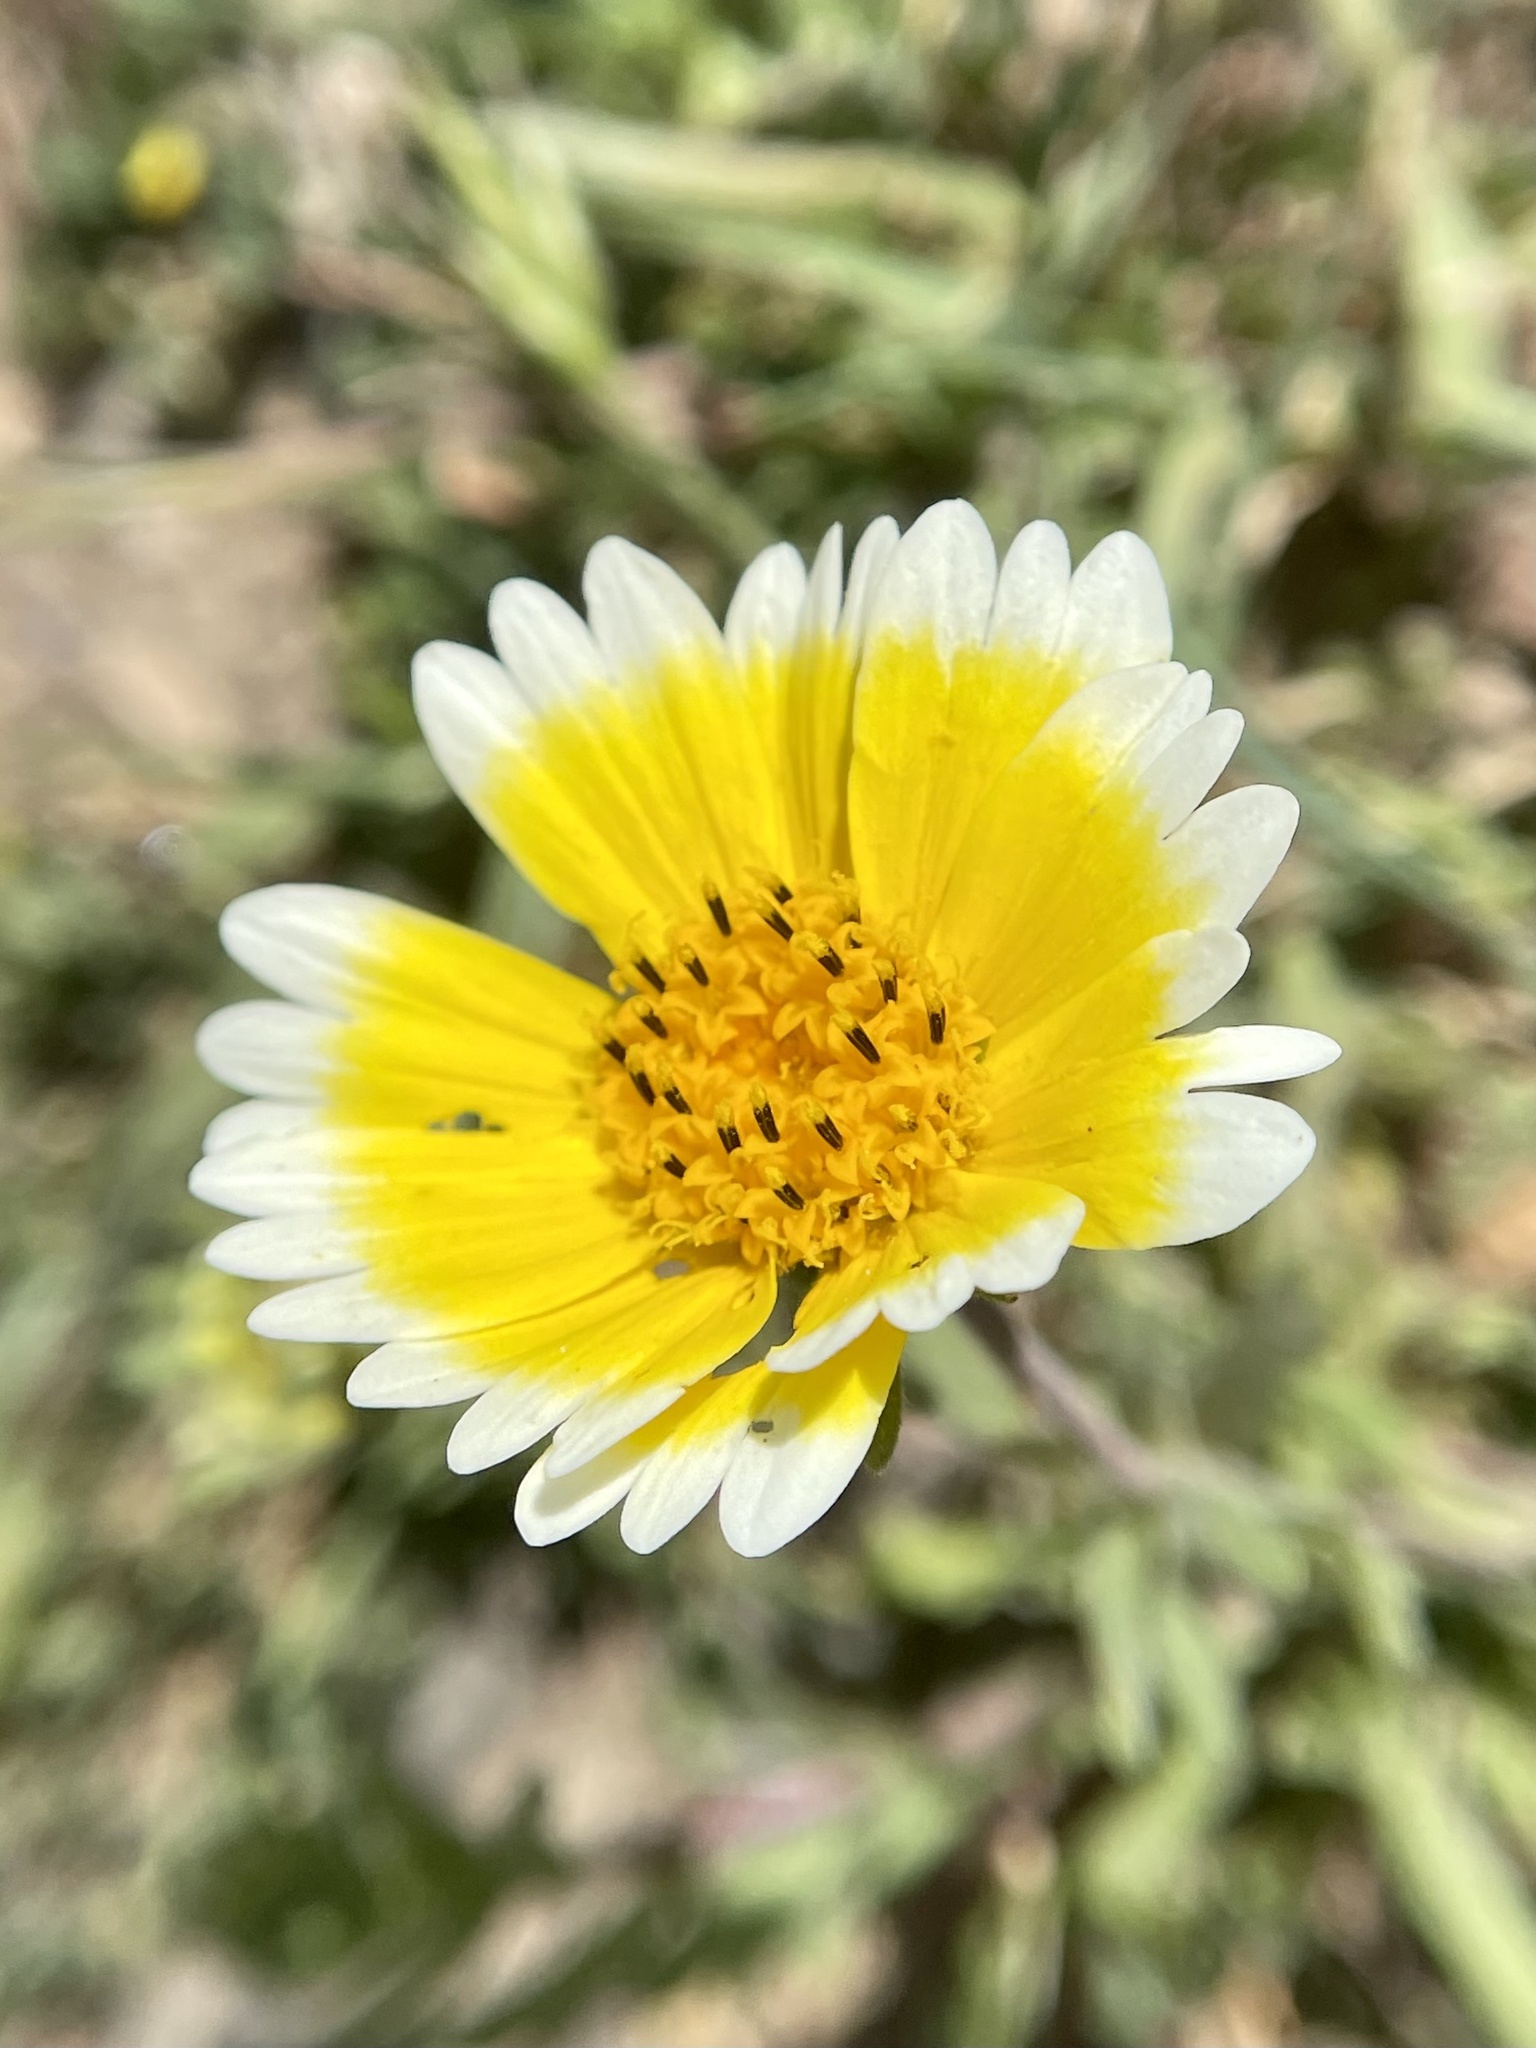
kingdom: Plantae
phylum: Tracheophyta
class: Magnoliopsida
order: Asterales
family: Asteraceae
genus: Layia
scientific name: Layia platyglossa
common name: Tidy-tips
